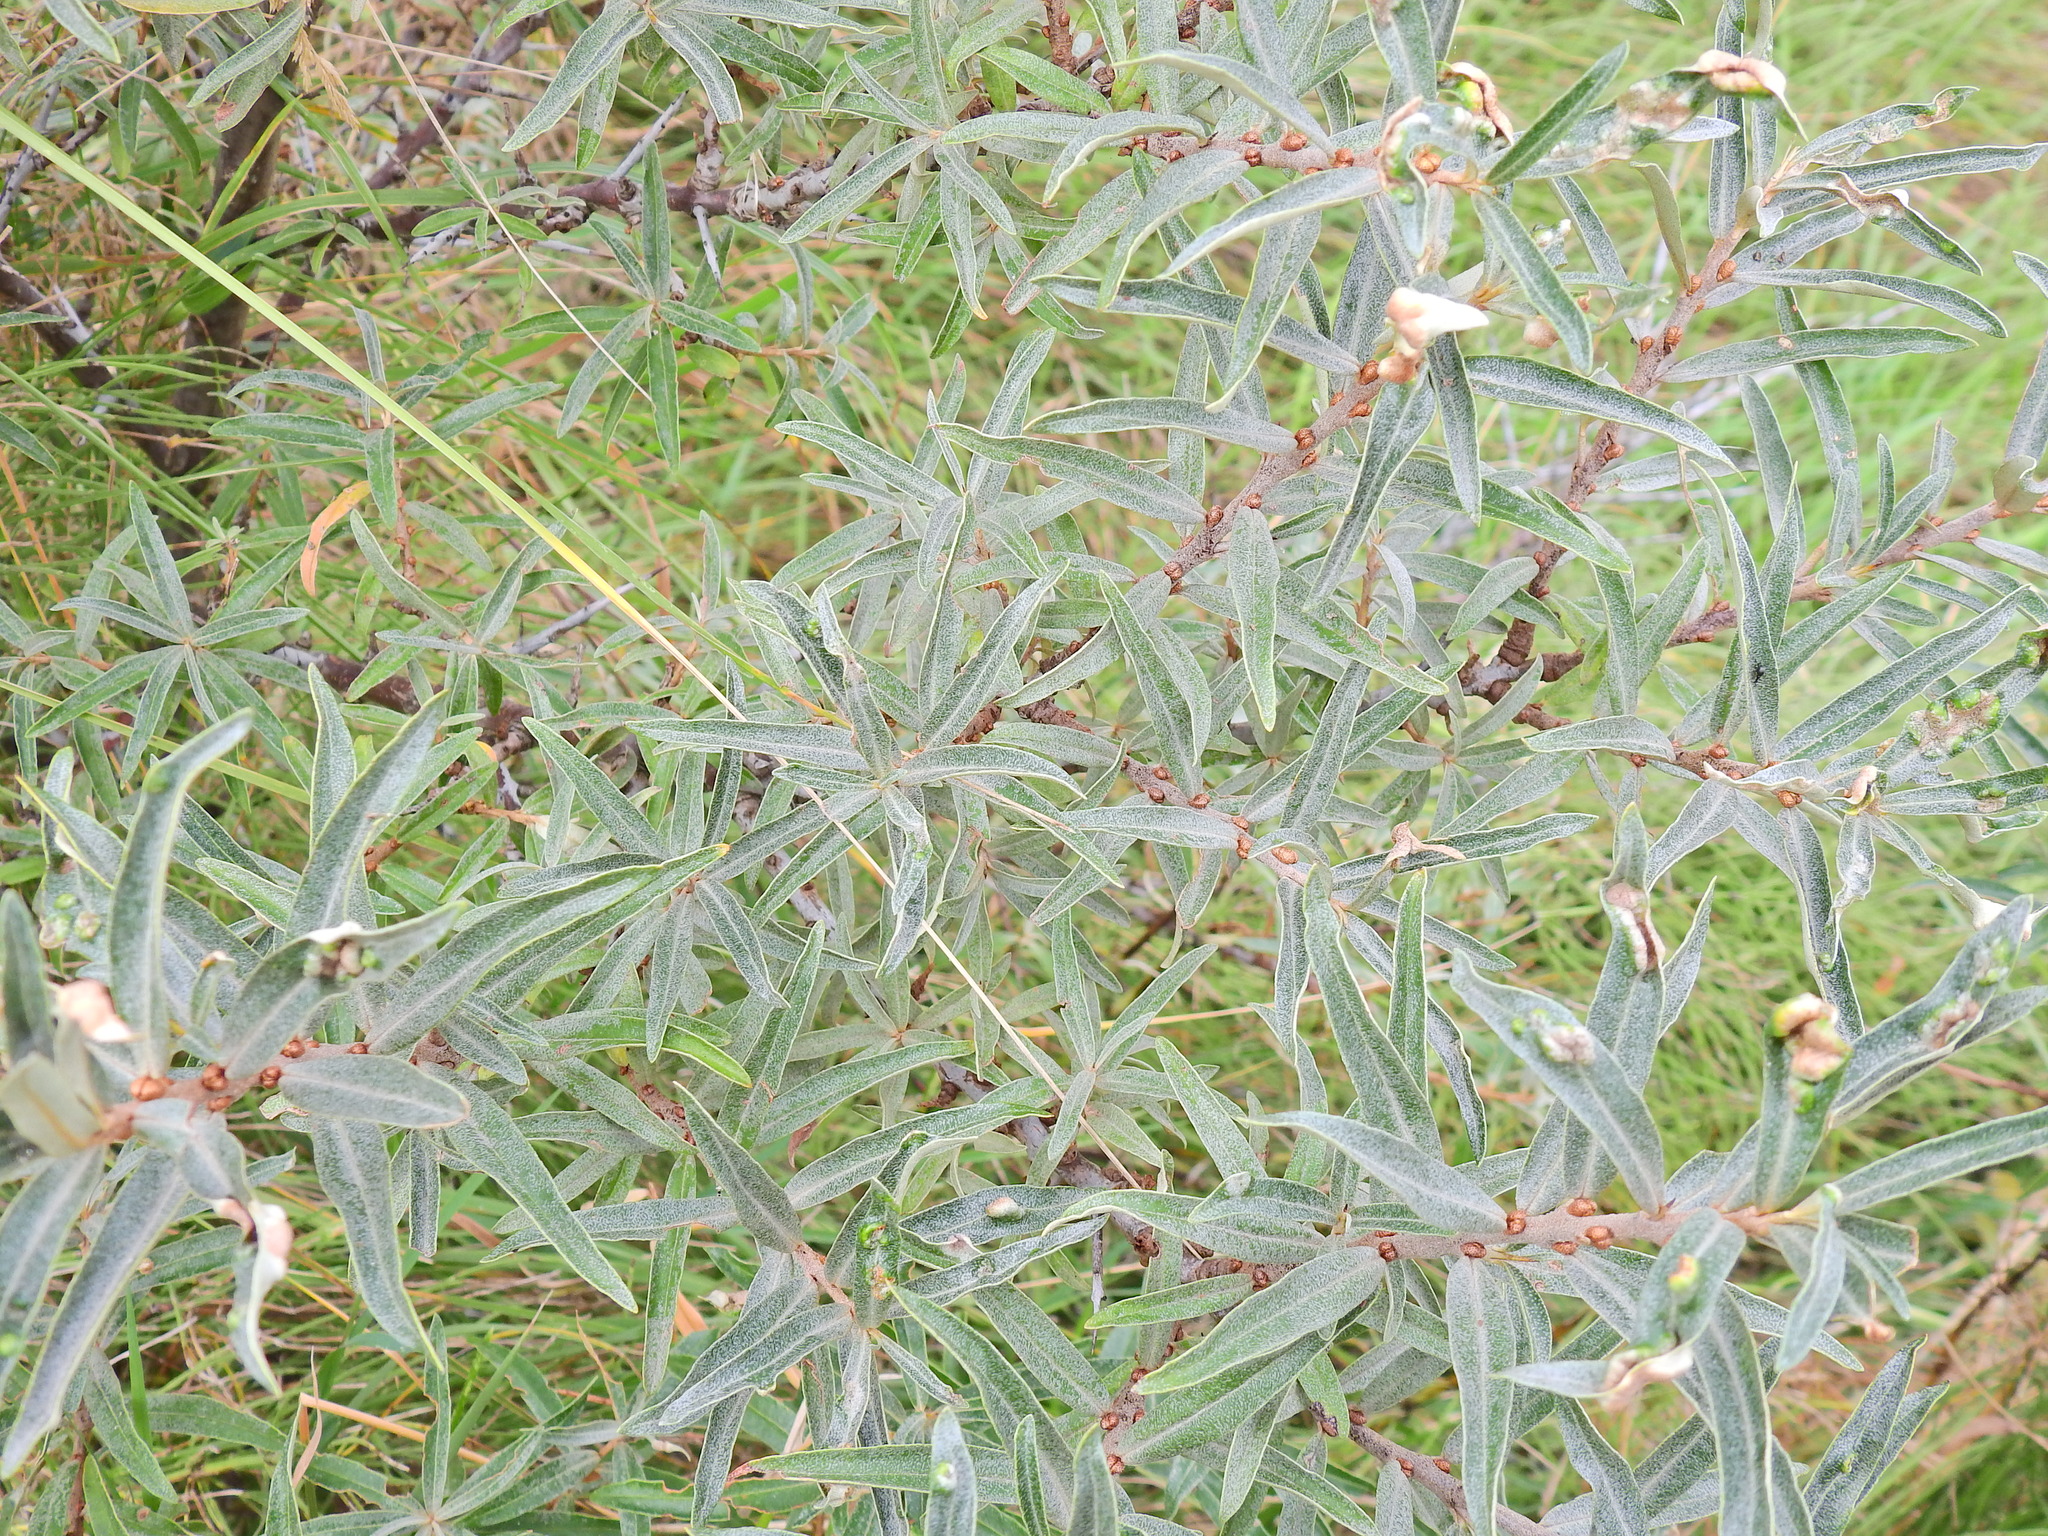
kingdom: Plantae
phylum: Tracheophyta
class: Magnoliopsida
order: Rosales
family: Elaeagnaceae
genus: Hippophae
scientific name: Hippophae rhamnoides
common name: Sea-buckthorn
